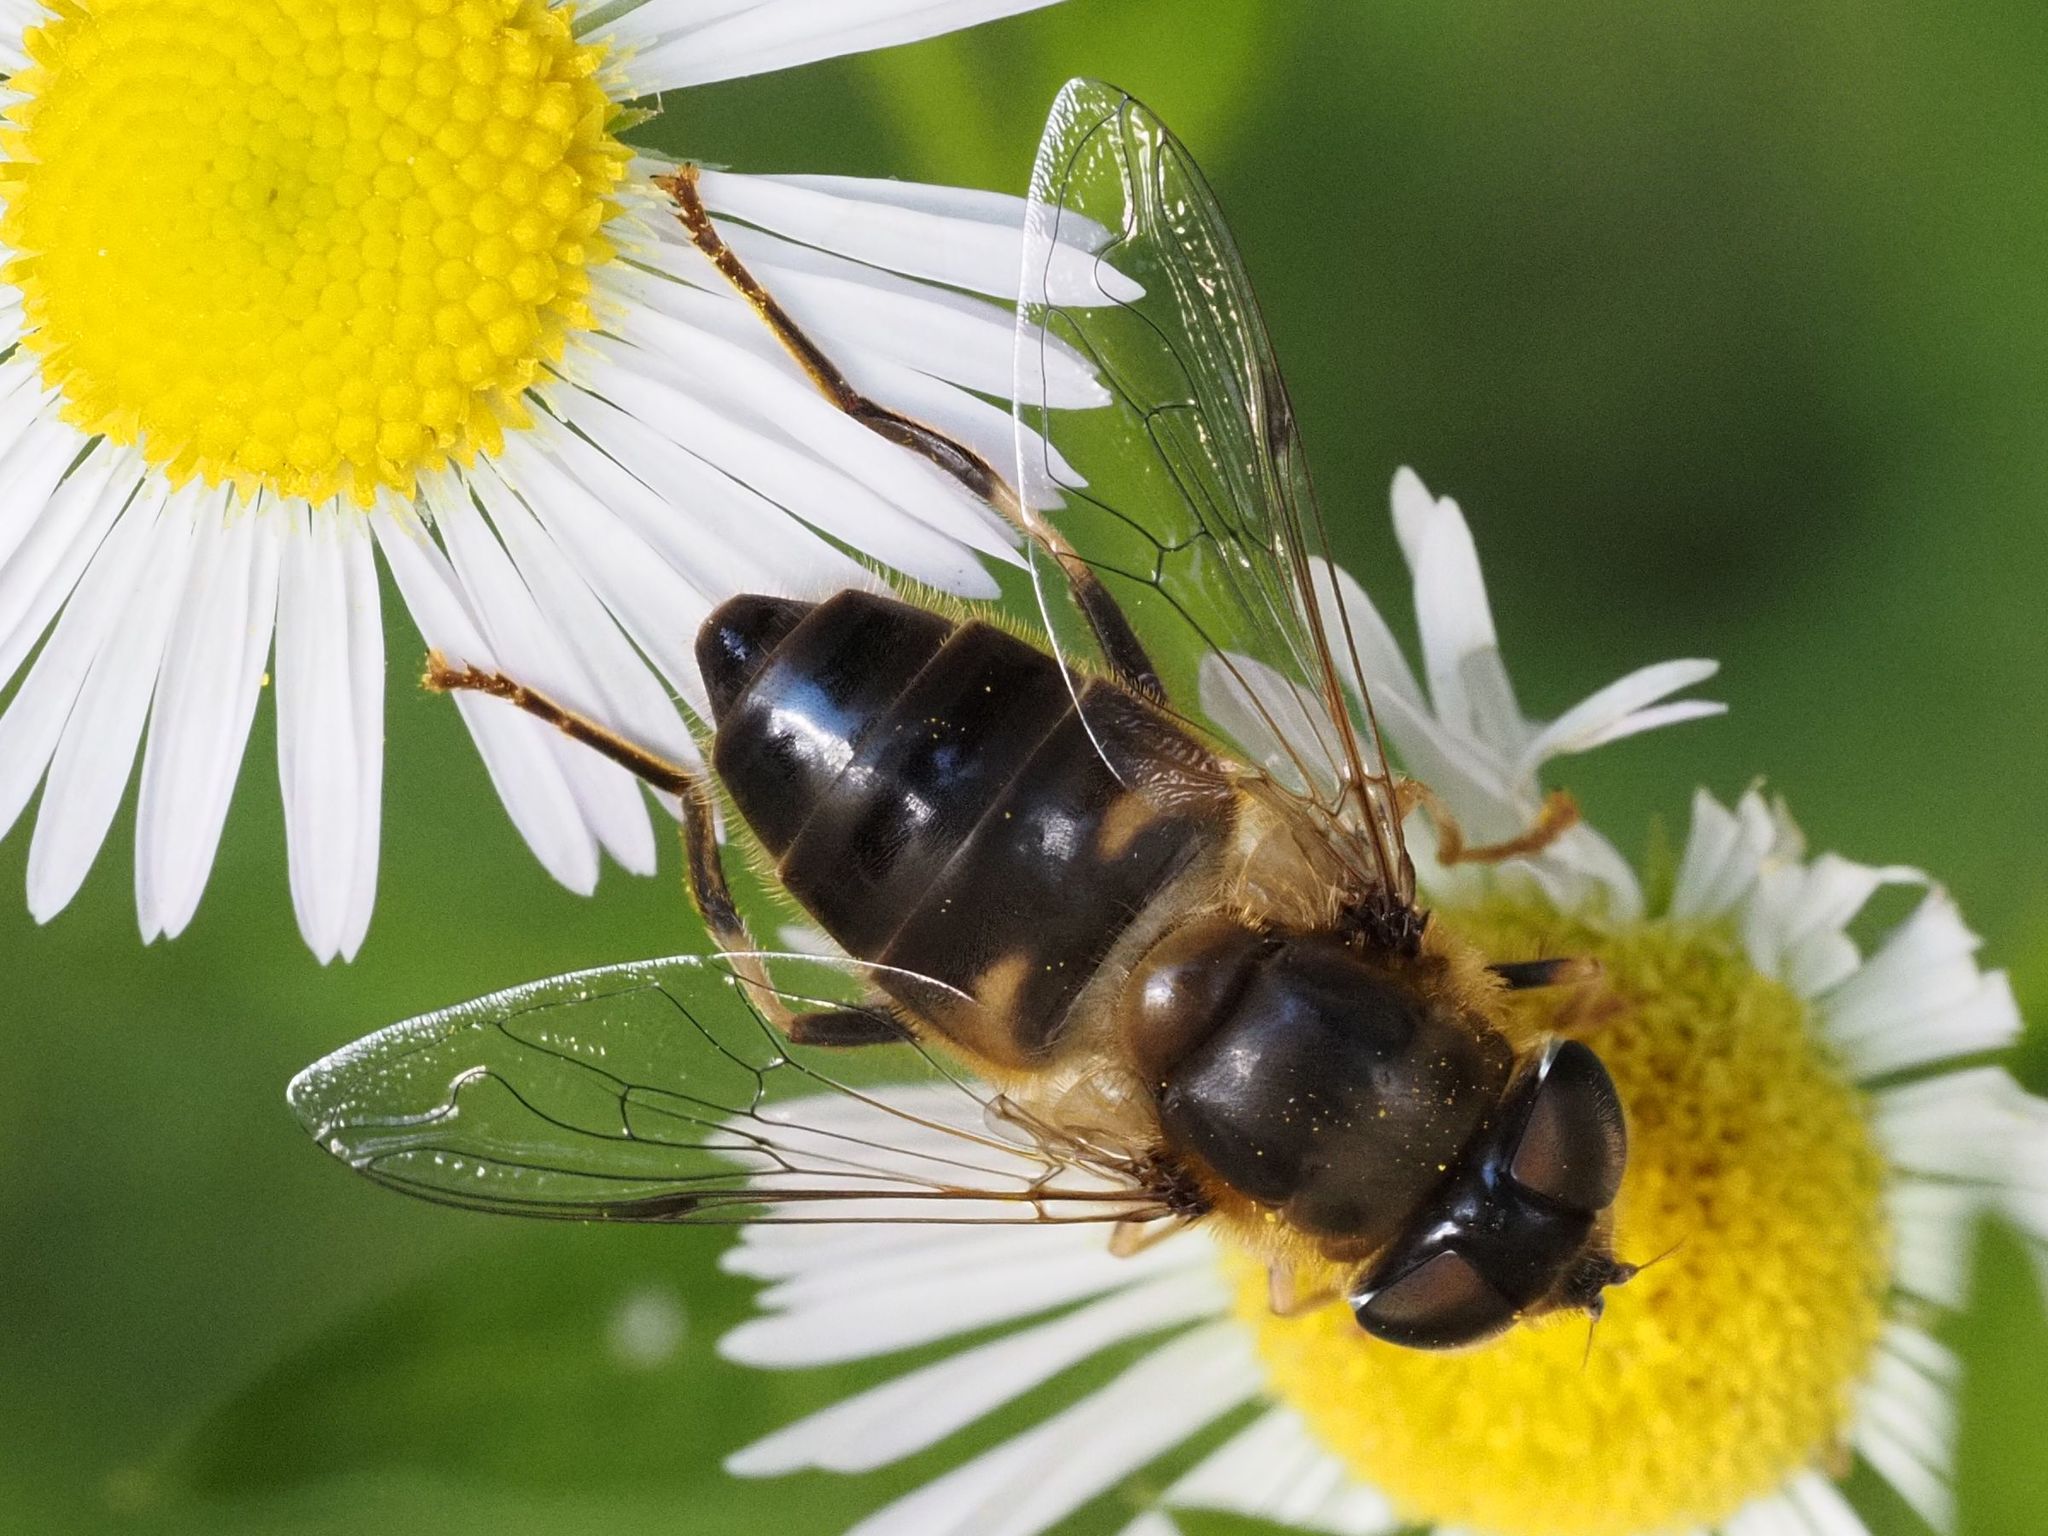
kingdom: Animalia
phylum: Arthropoda
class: Insecta
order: Diptera
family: Syrphidae
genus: Eristalis
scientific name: Eristalis pertinax
